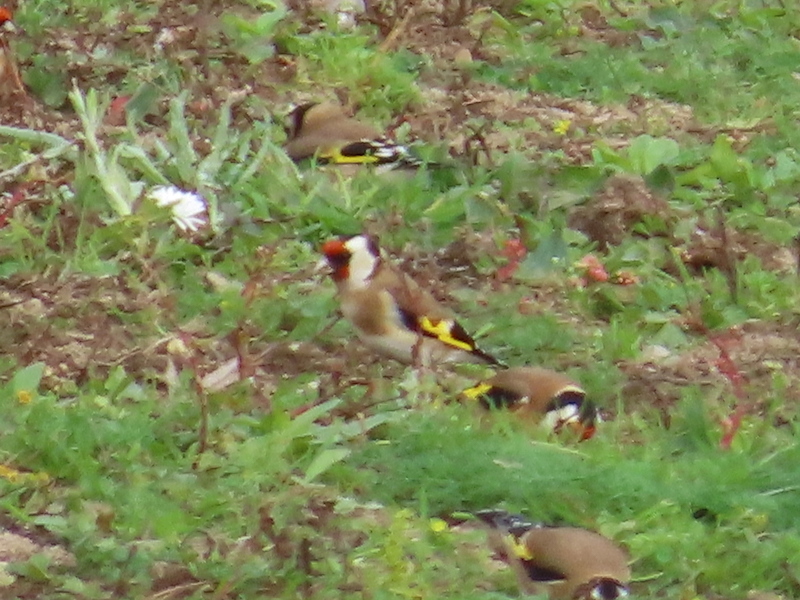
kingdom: Animalia
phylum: Chordata
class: Aves
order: Passeriformes
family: Fringillidae
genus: Carduelis
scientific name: Carduelis carduelis
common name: European goldfinch
